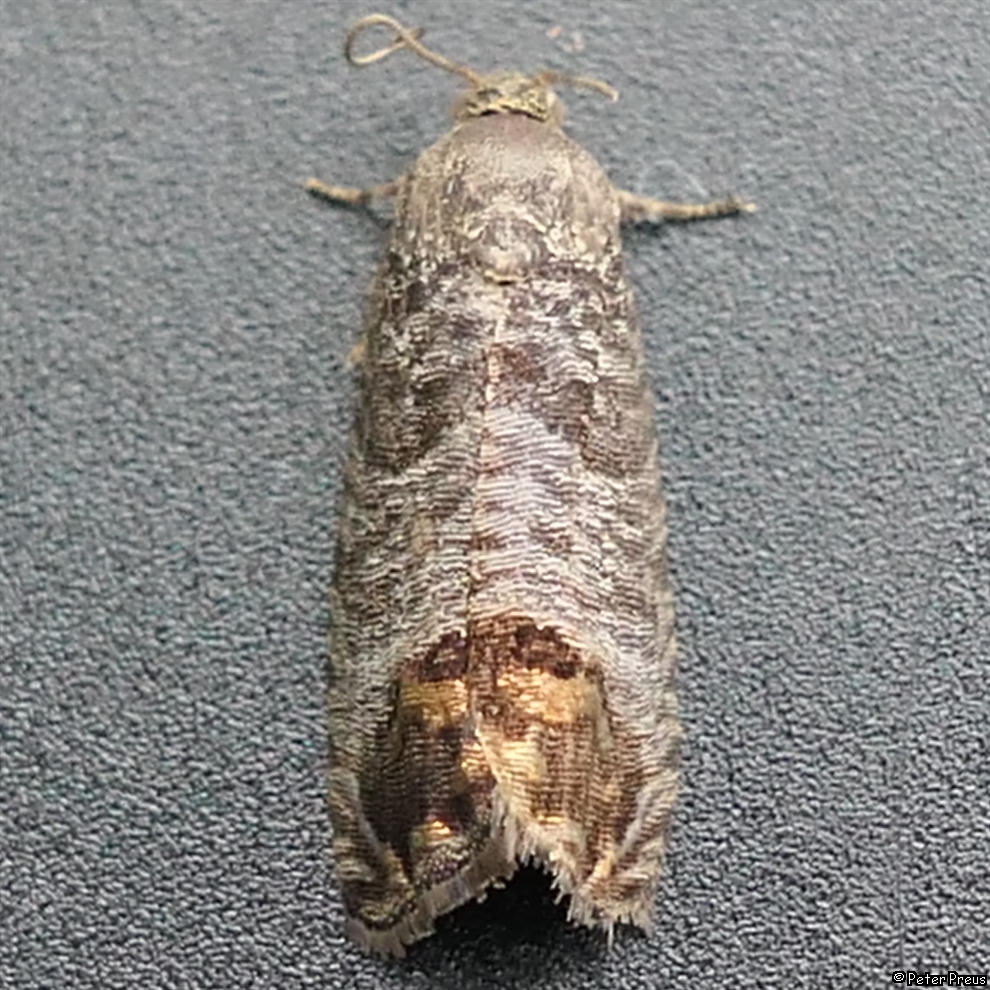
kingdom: Animalia
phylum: Arthropoda
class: Insecta
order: Lepidoptera
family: Tortricidae
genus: Cydia
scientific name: Cydia pomonella
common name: Codling moth
